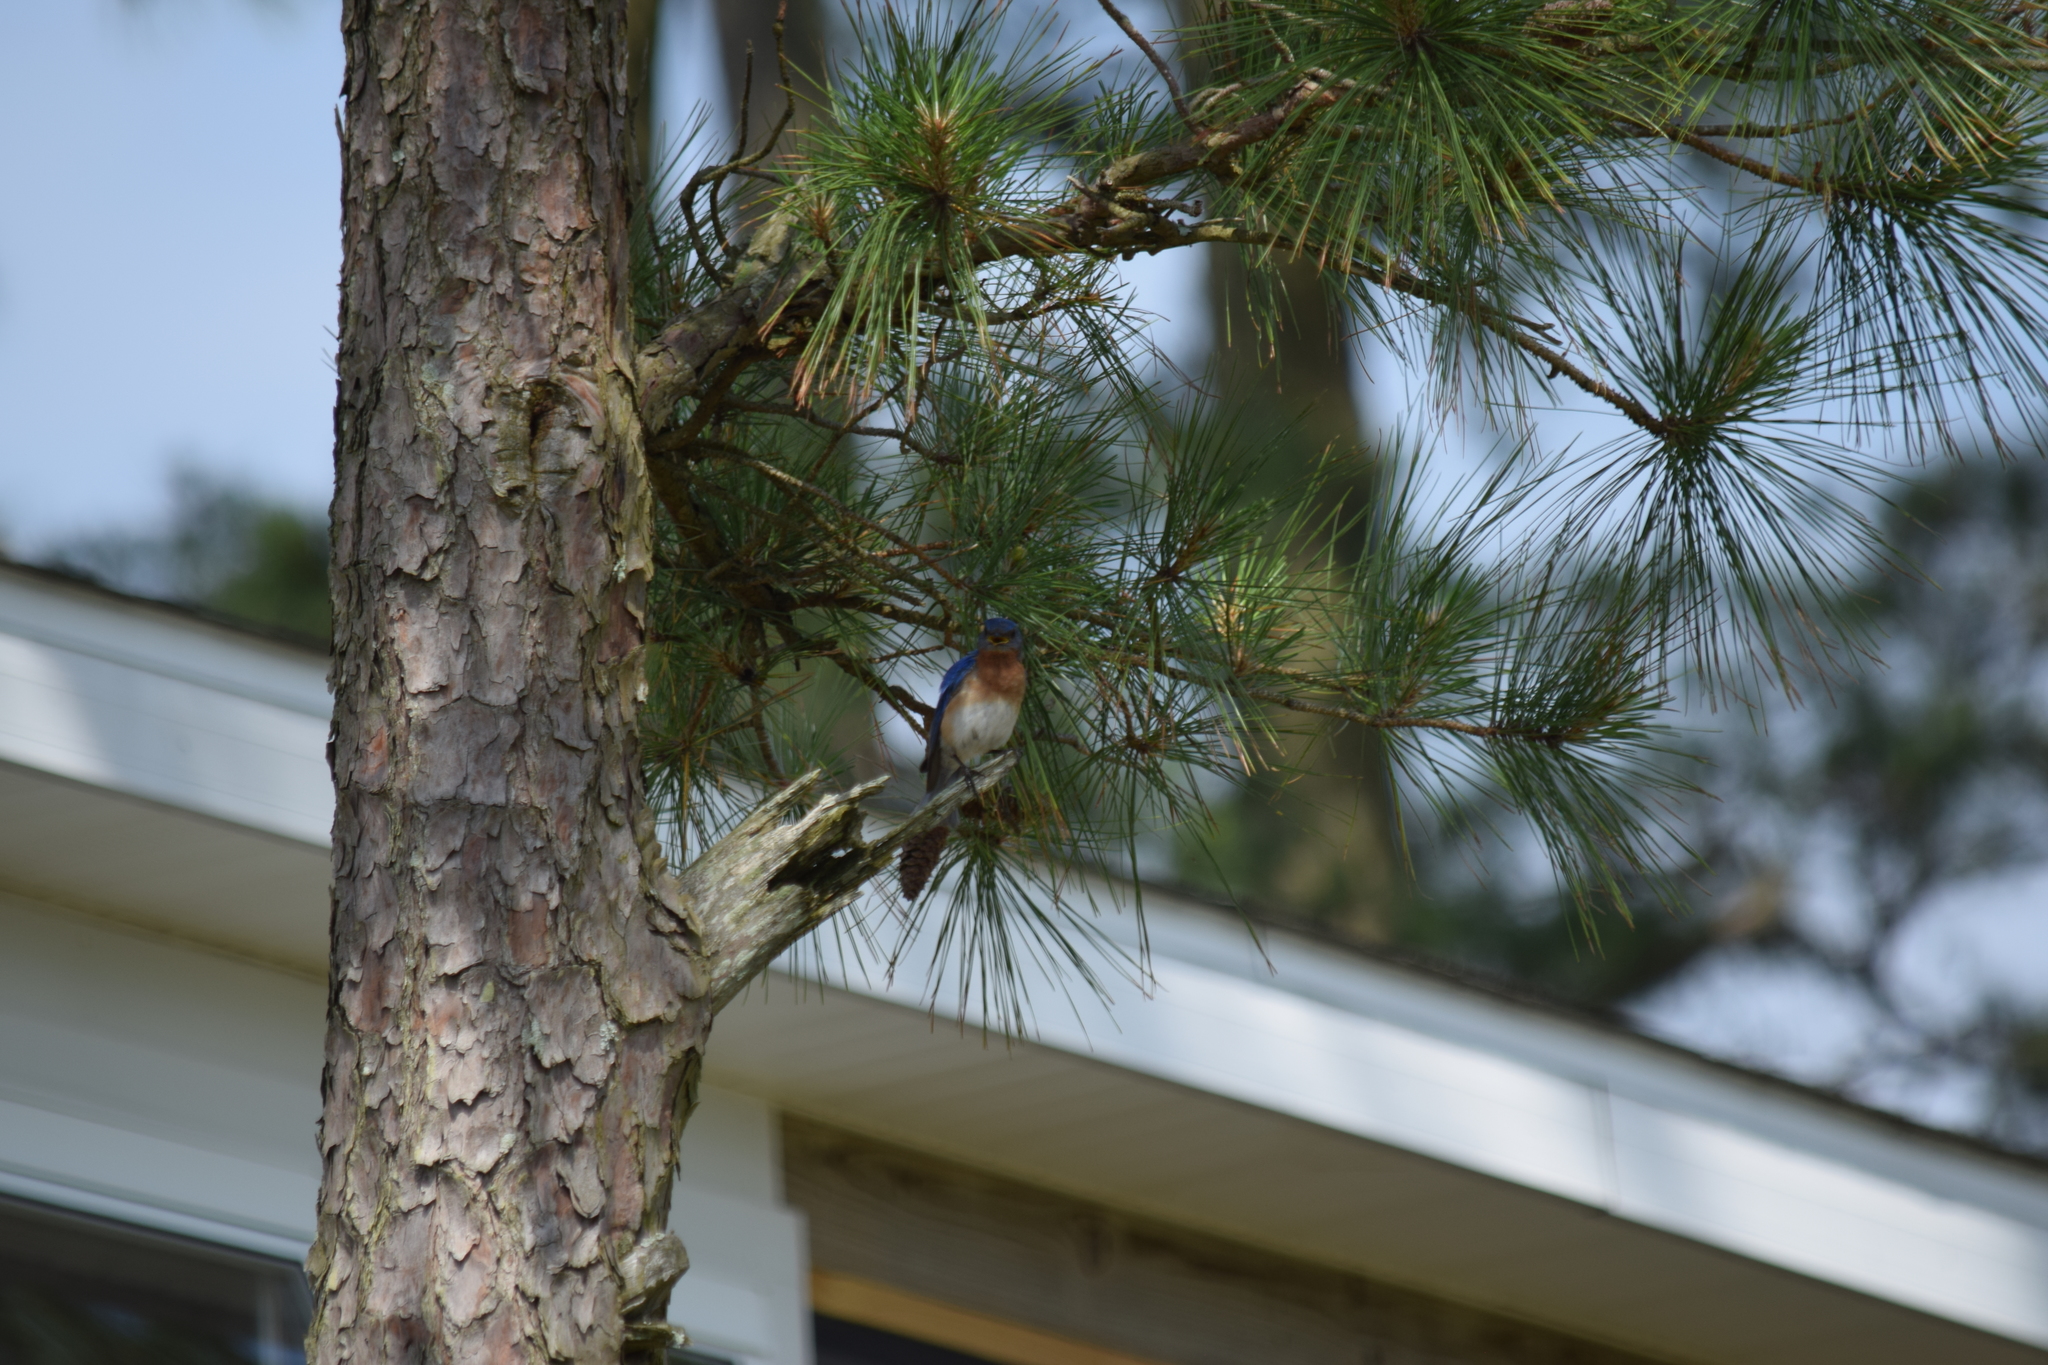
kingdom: Animalia
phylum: Chordata
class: Aves
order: Passeriformes
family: Turdidae
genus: Sialia
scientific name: Sialia sialis
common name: Eastern bluebird
